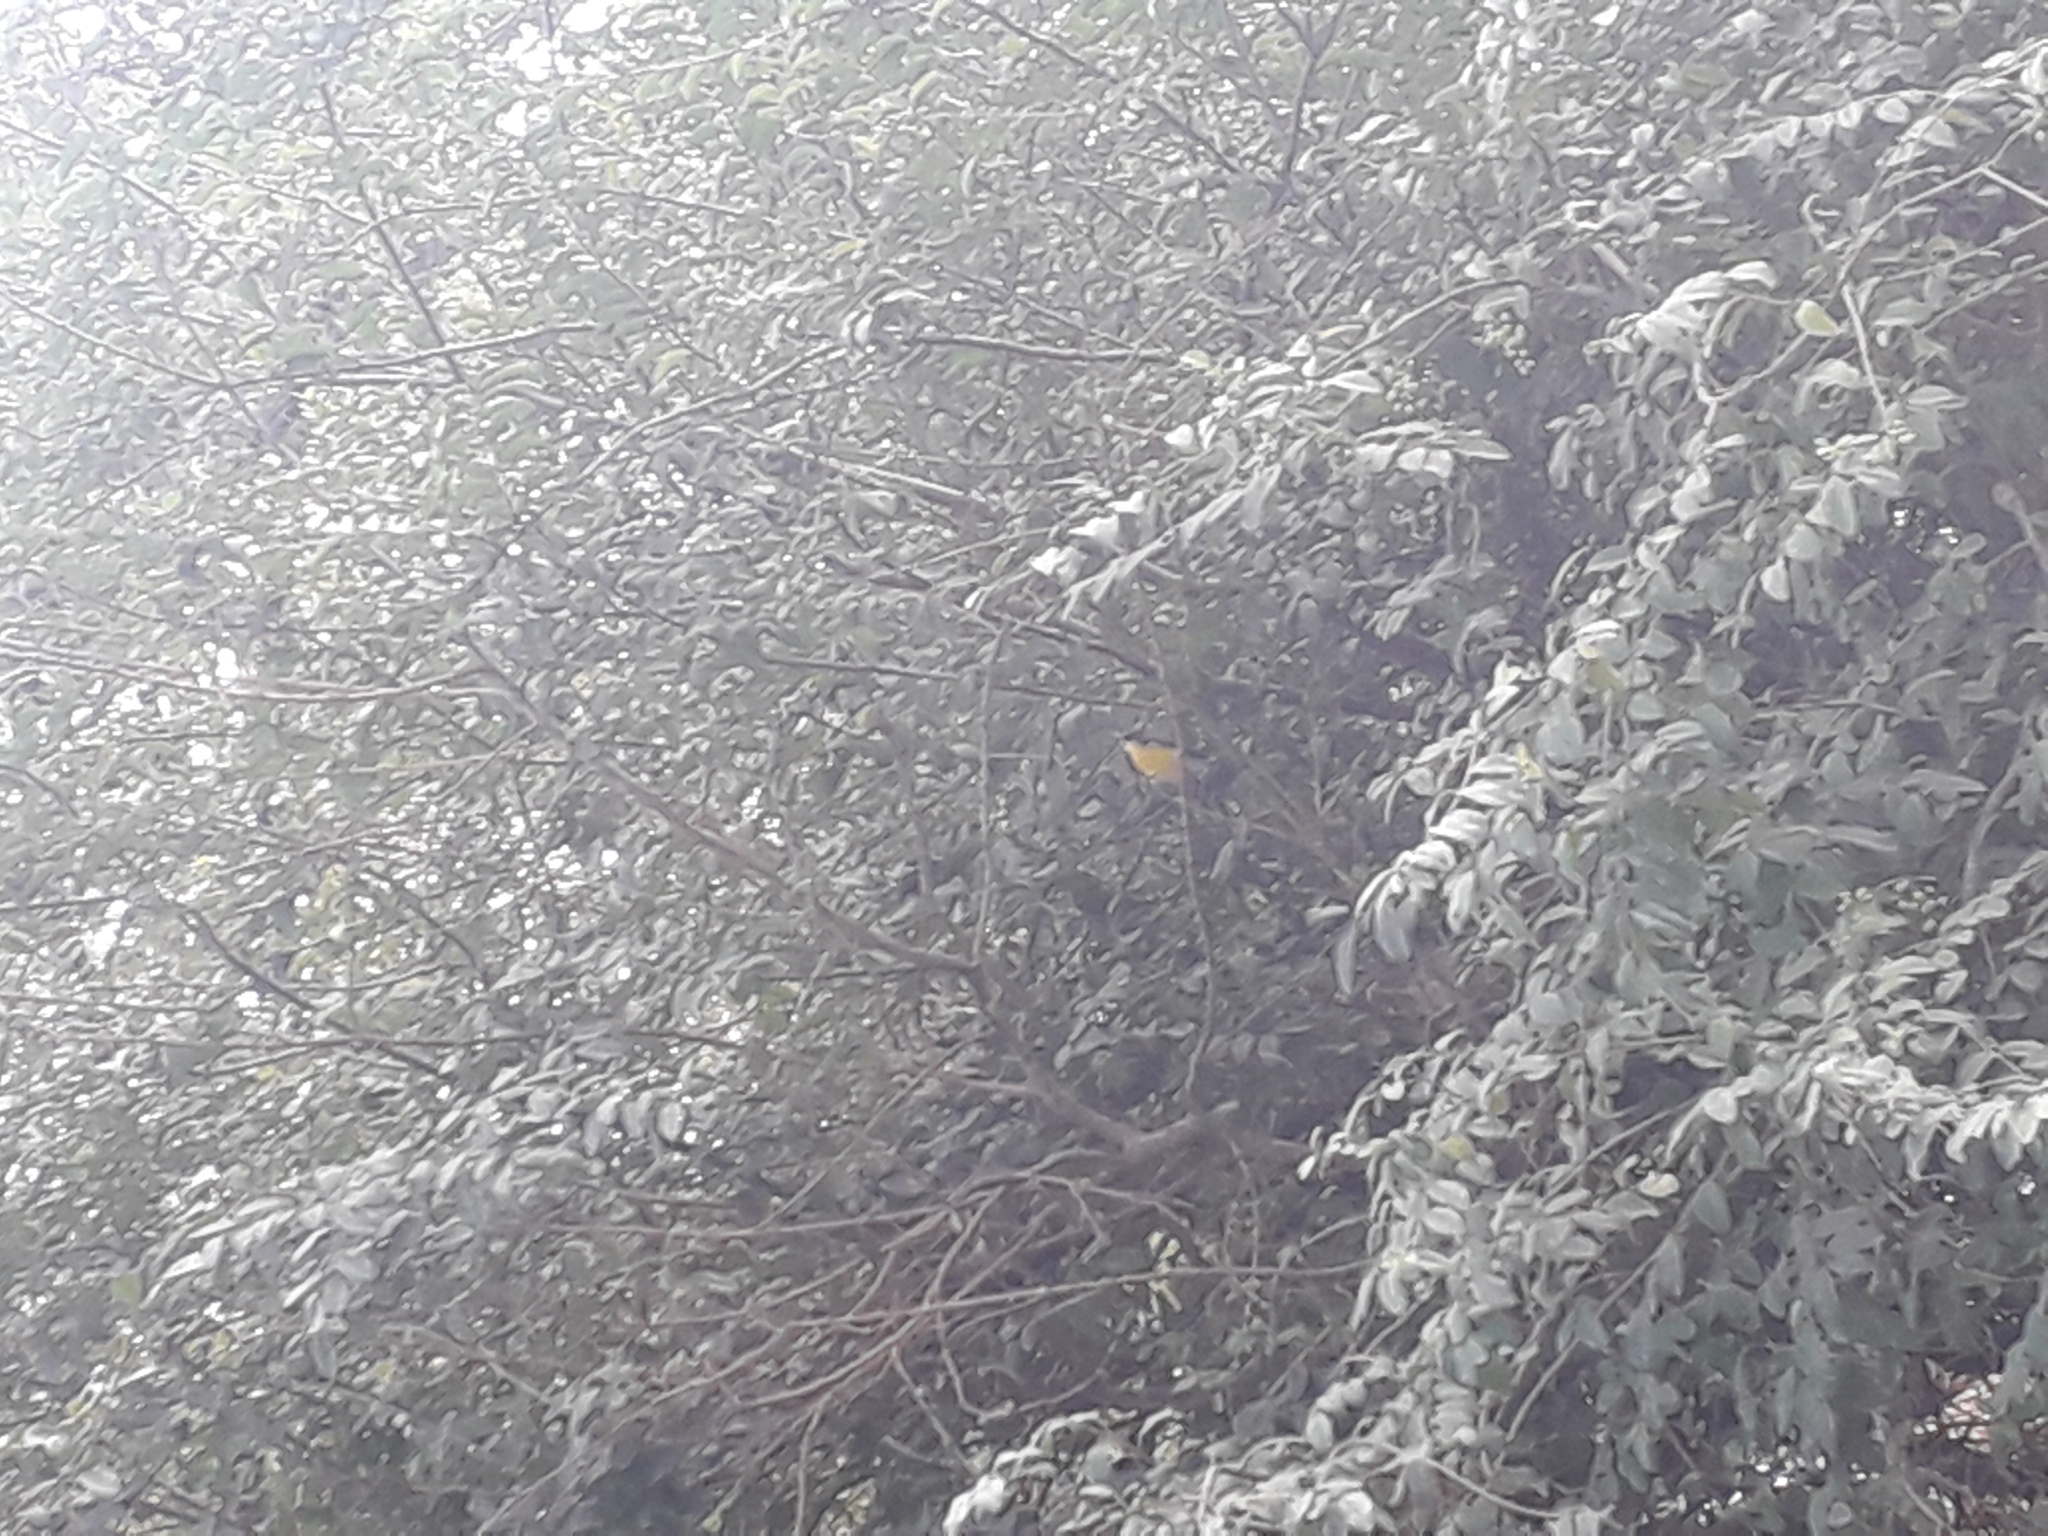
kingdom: Animalia
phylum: Chordata
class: Aves
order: Passeriformes
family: Parulidae
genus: Setophaga
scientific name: Setophaga pitiayumi
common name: Tropical parula
